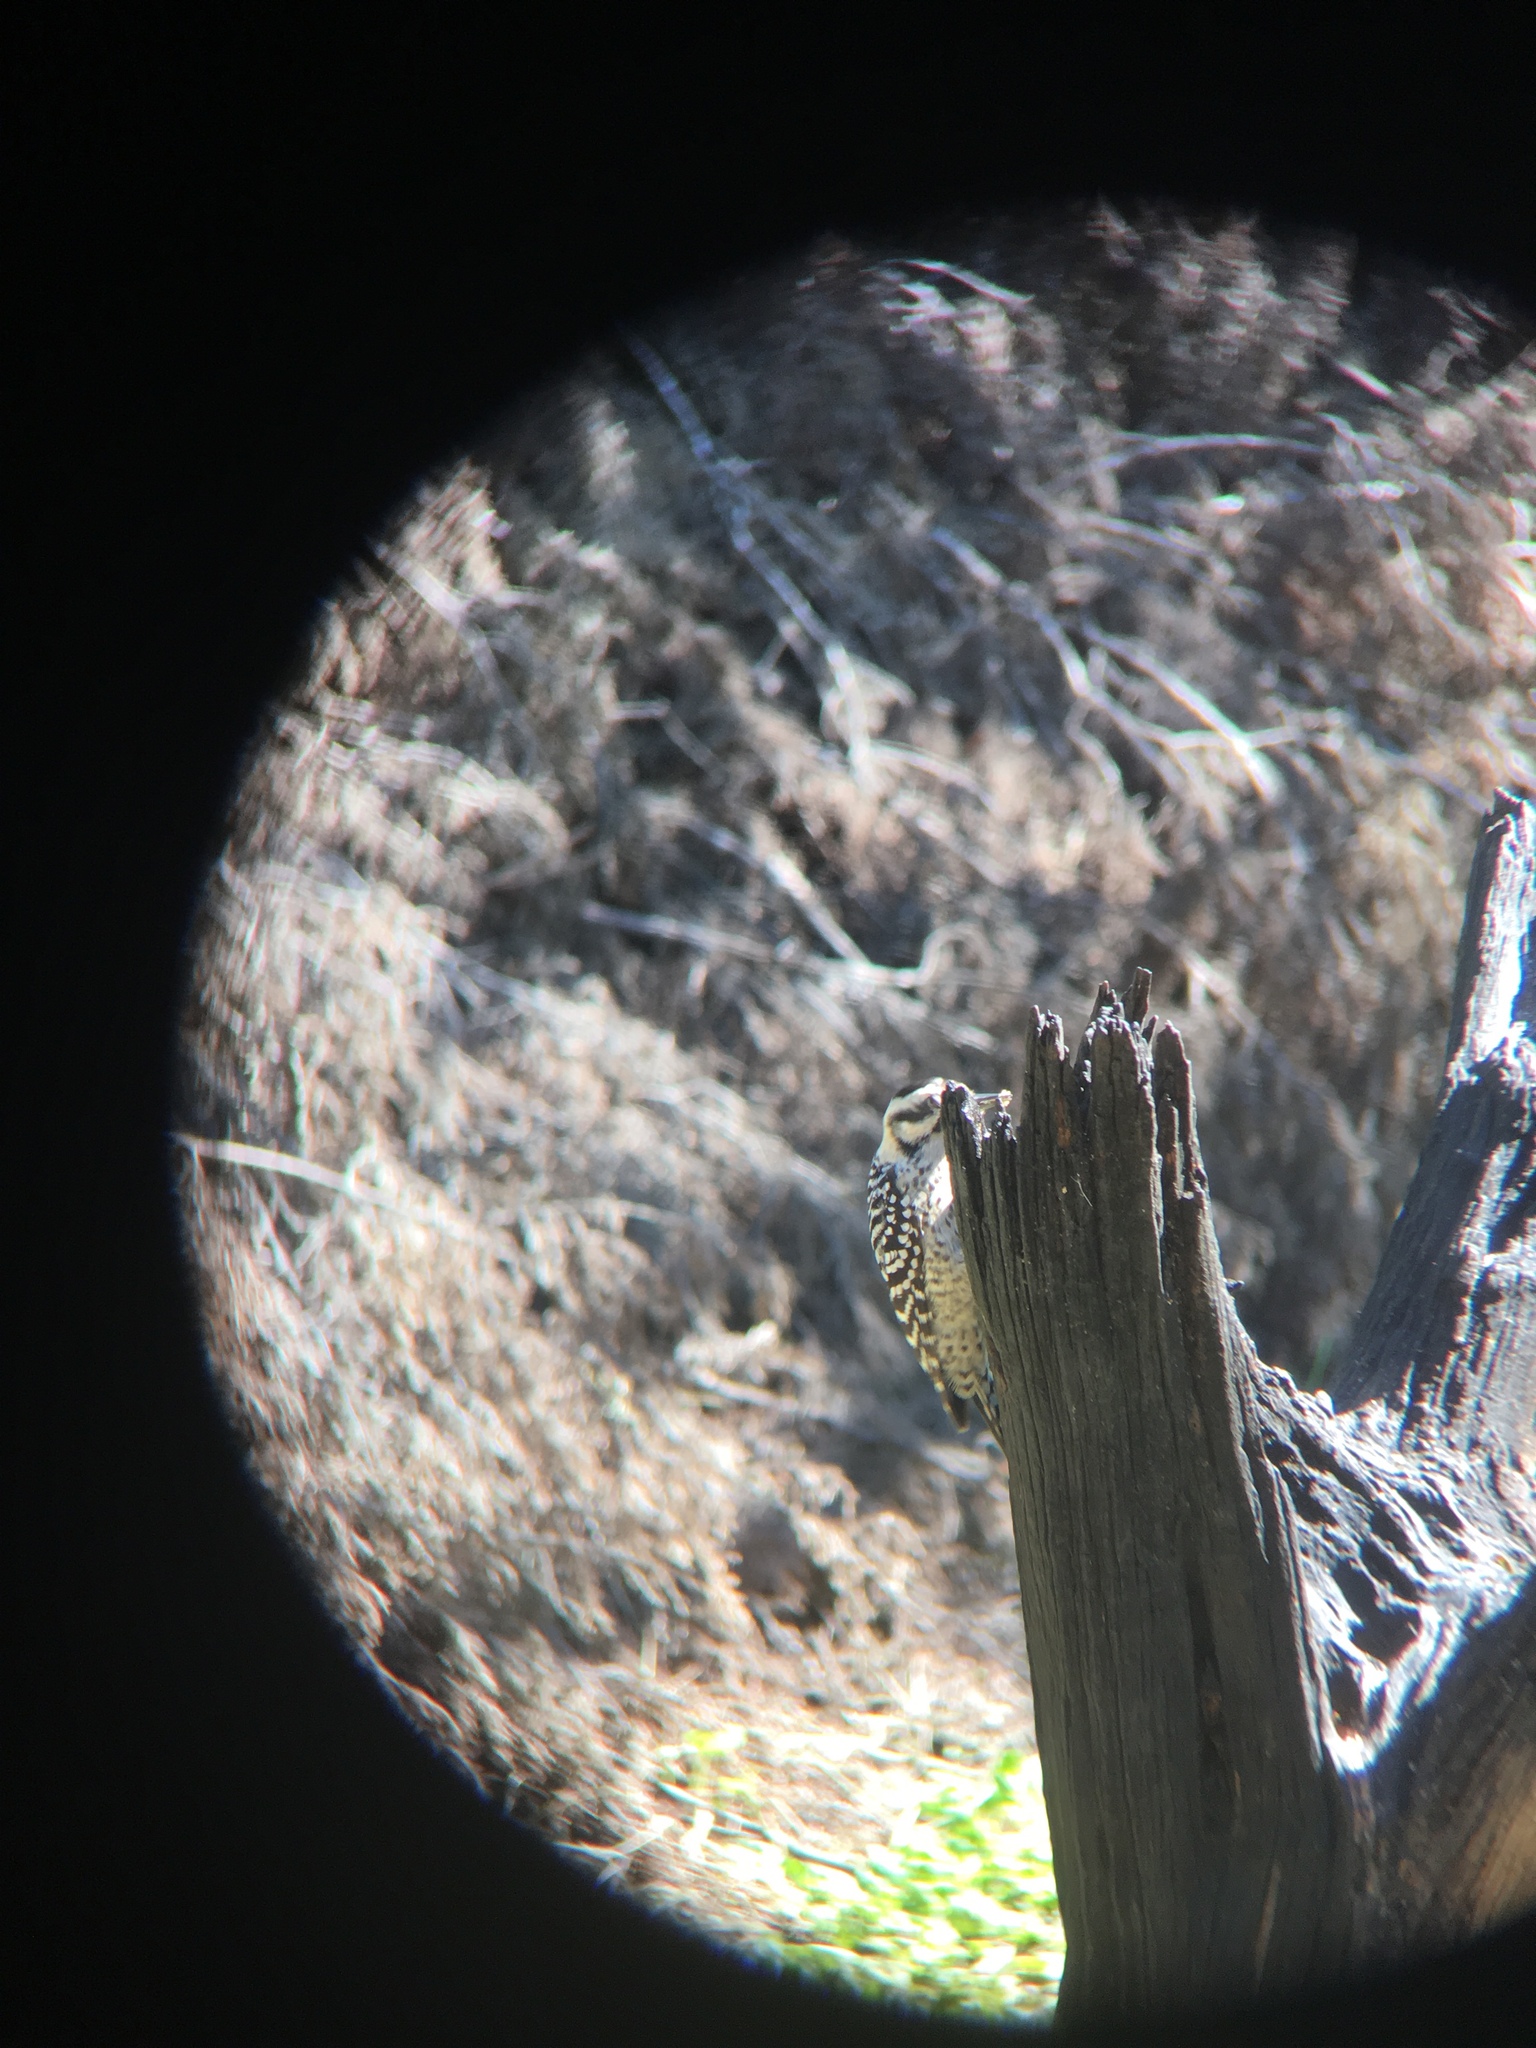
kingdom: Animalia
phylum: Chordata
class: Aves
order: Piciformes
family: Picidae
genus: Dryobates
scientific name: Dryobates scalaris
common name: Ladder-backed woodpecker
